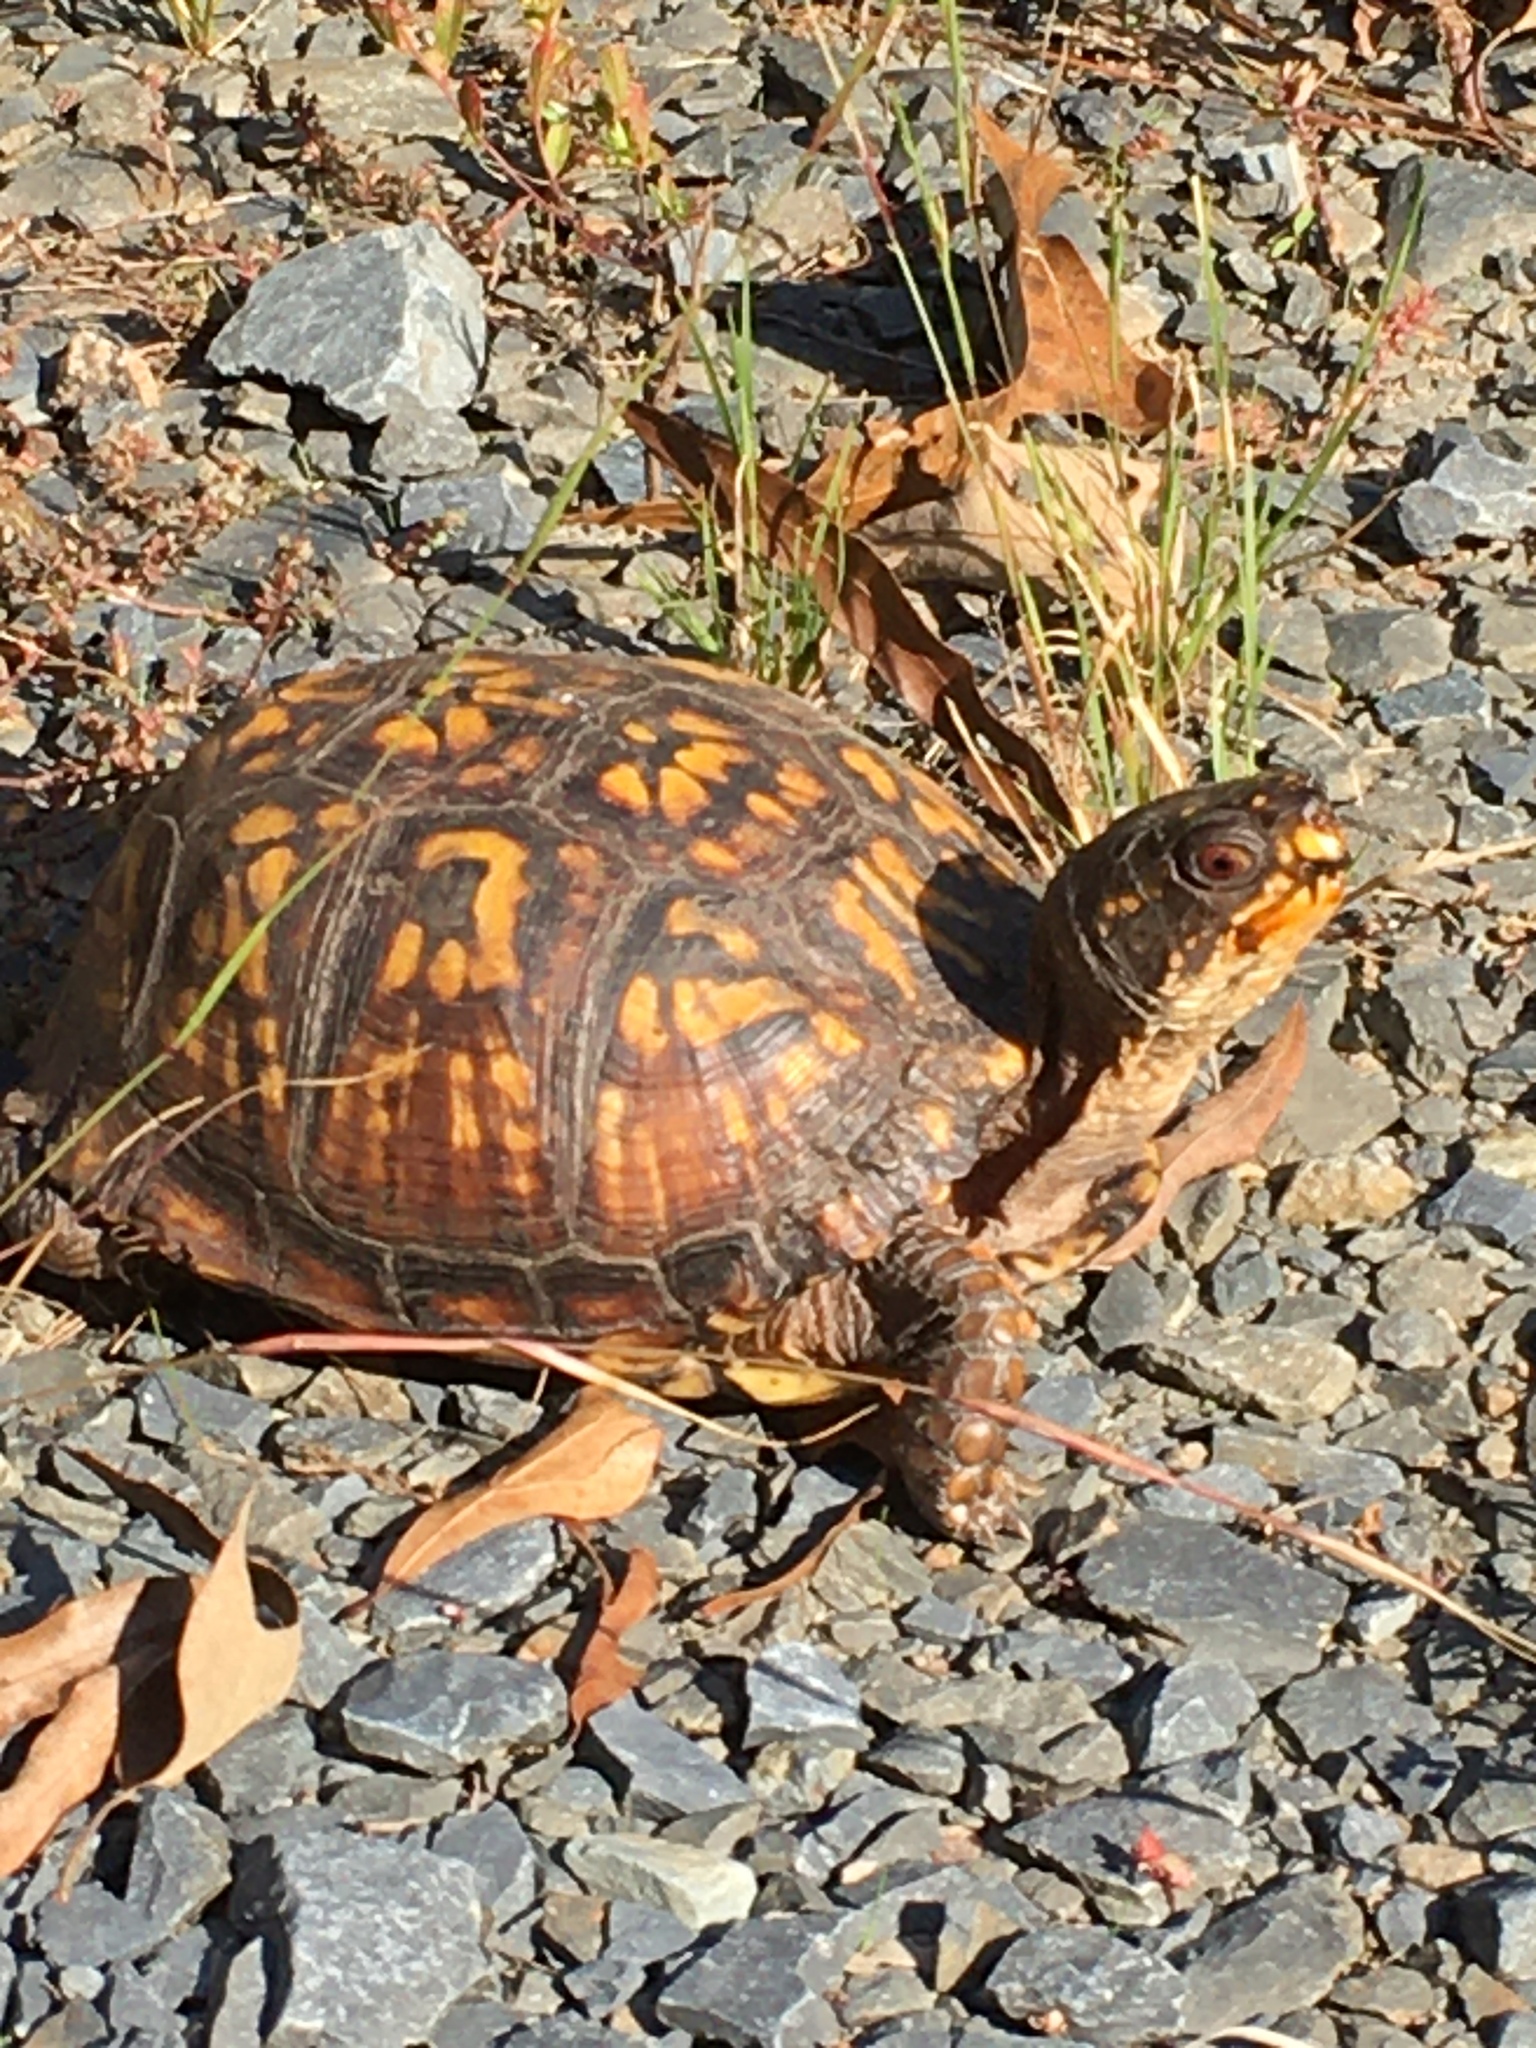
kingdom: Animalia
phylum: Chordata
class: Testudines
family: Emydidae
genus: Terrapene
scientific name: Terrapene carolina
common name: Common box turtle
